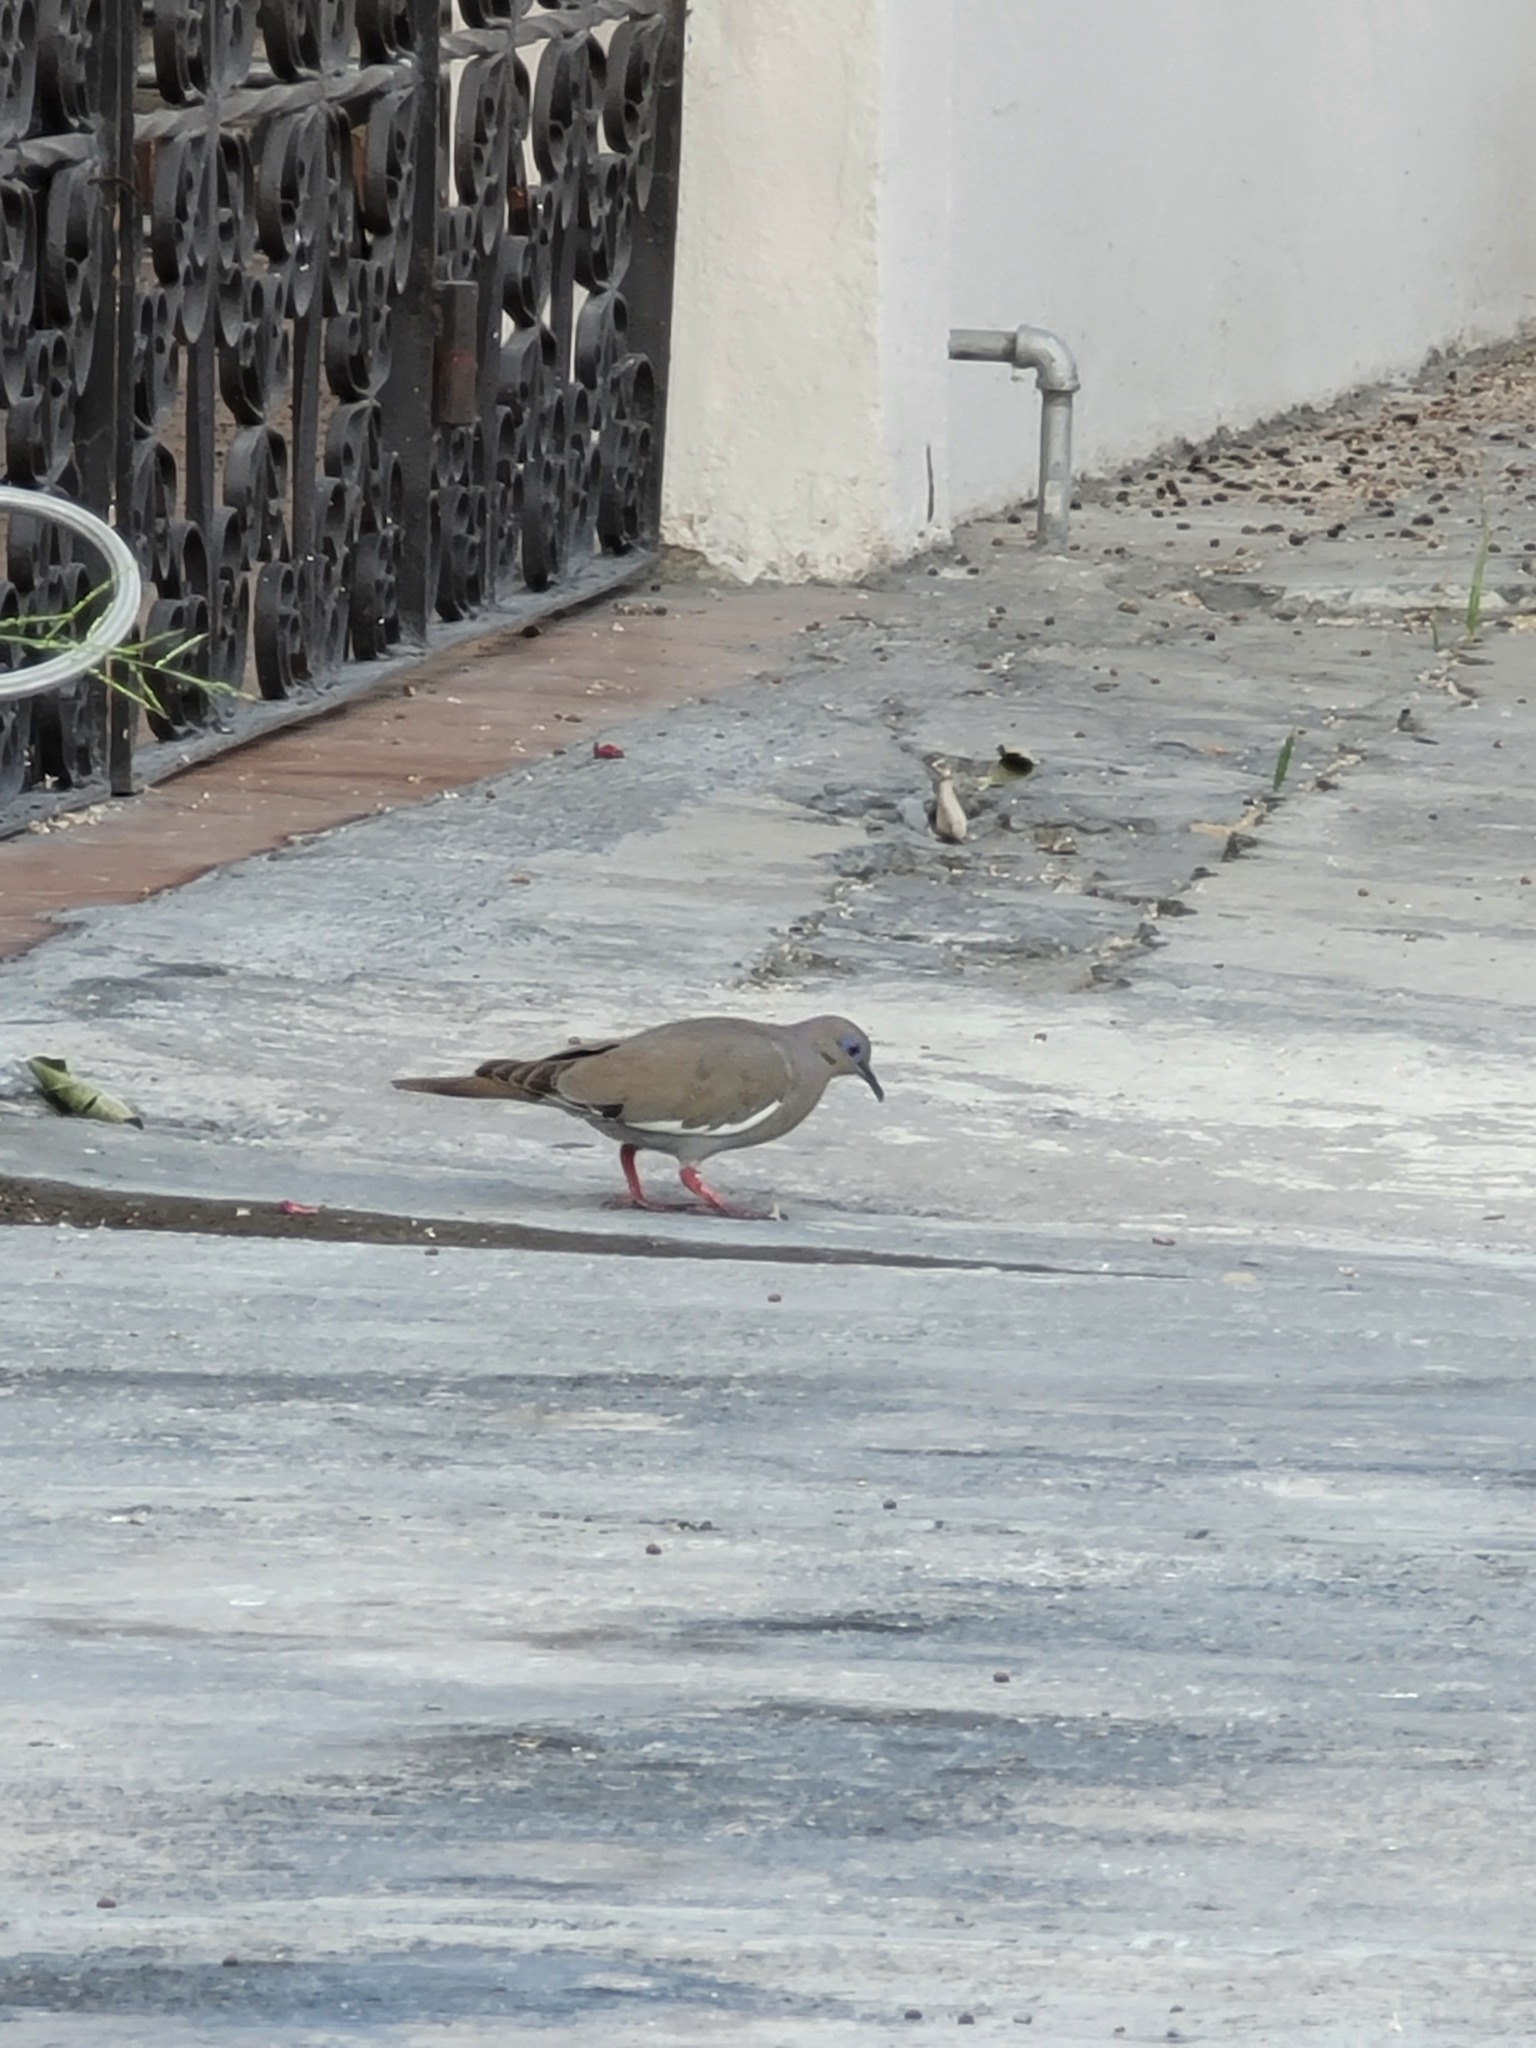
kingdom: Animalia
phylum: Chordata
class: Aves
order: Columbiformes
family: Columbidae
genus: Zenaida
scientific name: Zenaida asiatica
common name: White-winged dove
